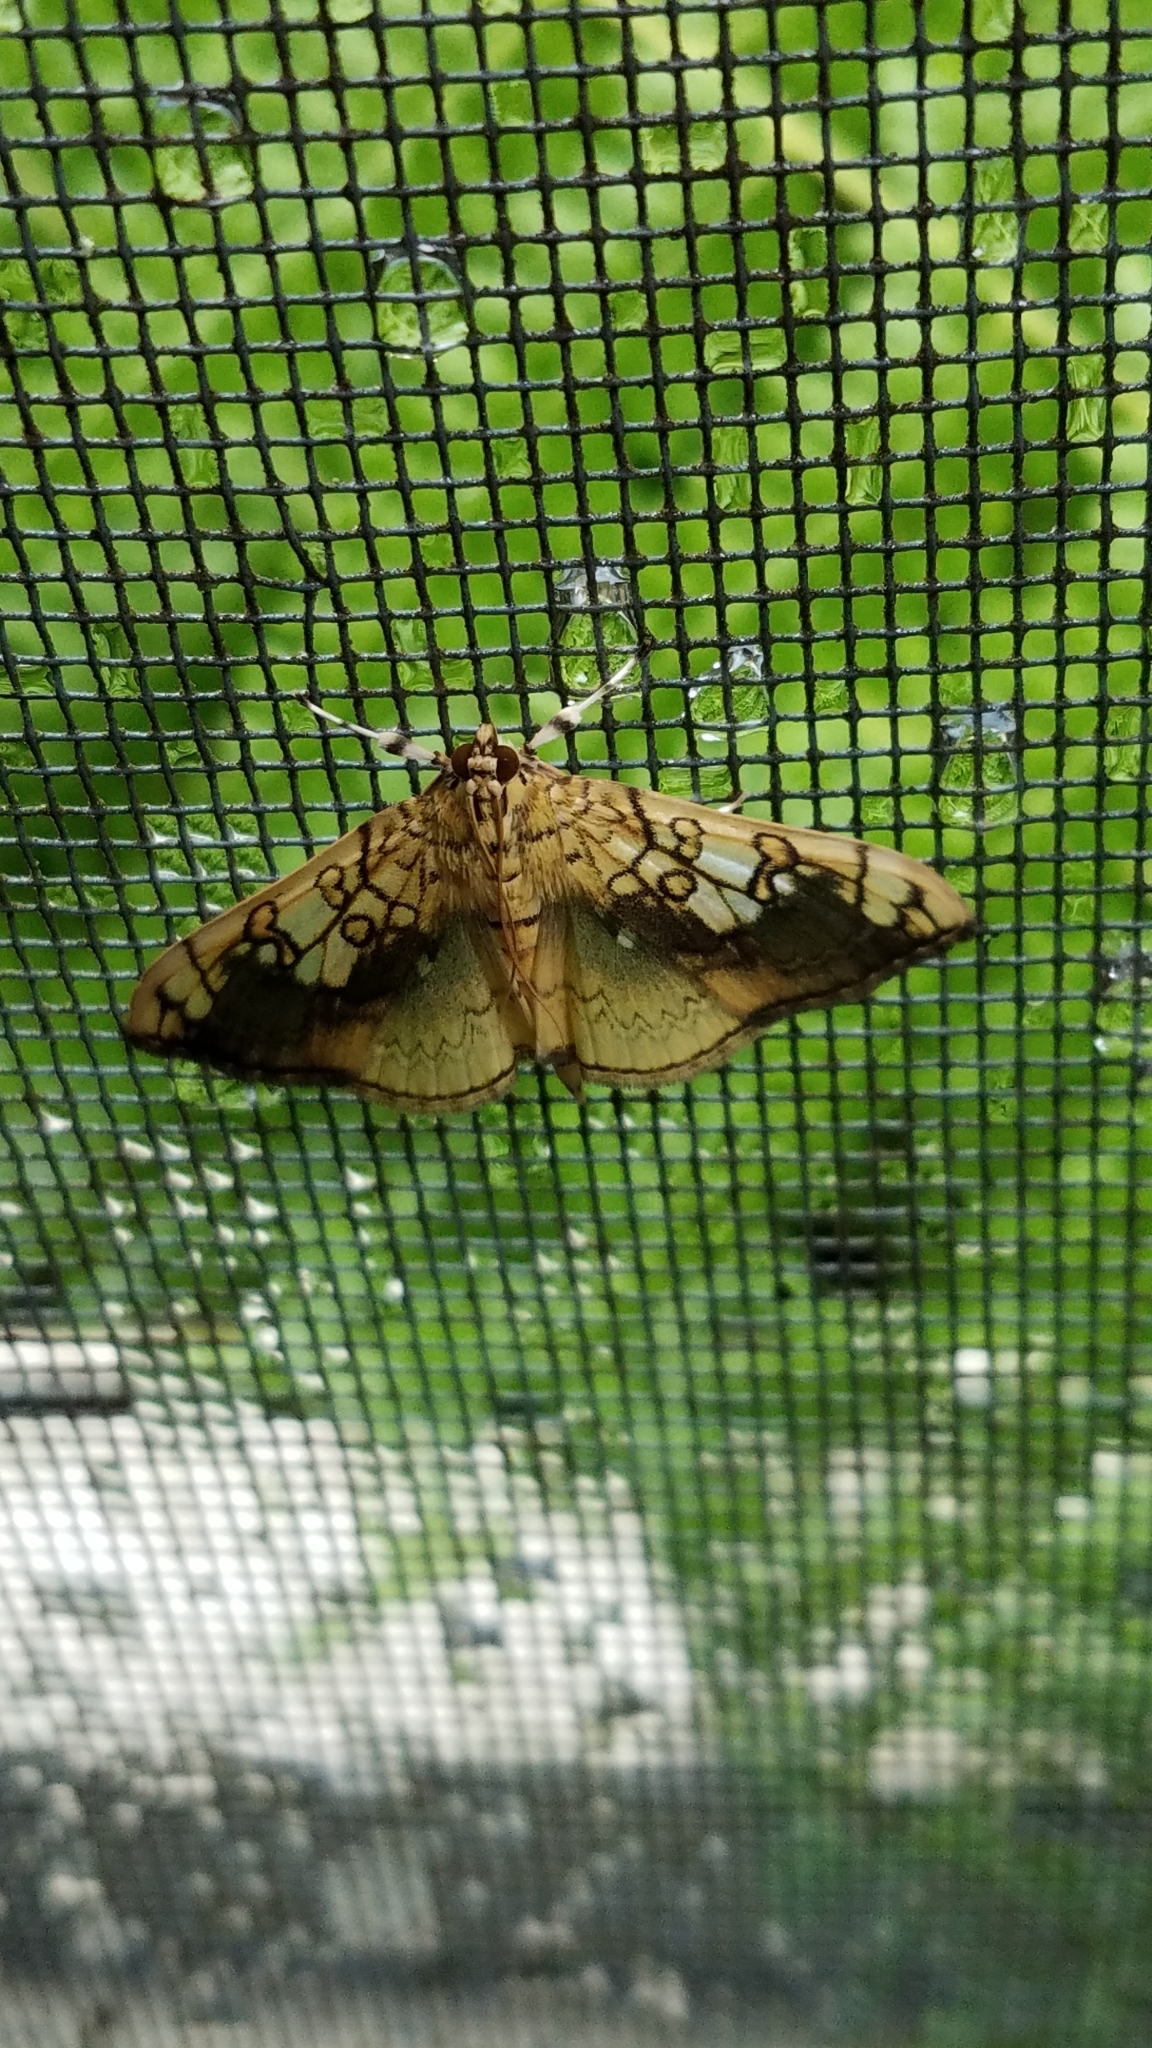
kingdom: Animalia
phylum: Arthropoda
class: Insecta
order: Lepidoptera
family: Crambidae
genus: Pantographa
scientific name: Pantographa limata
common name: Basswood leafroller moth
